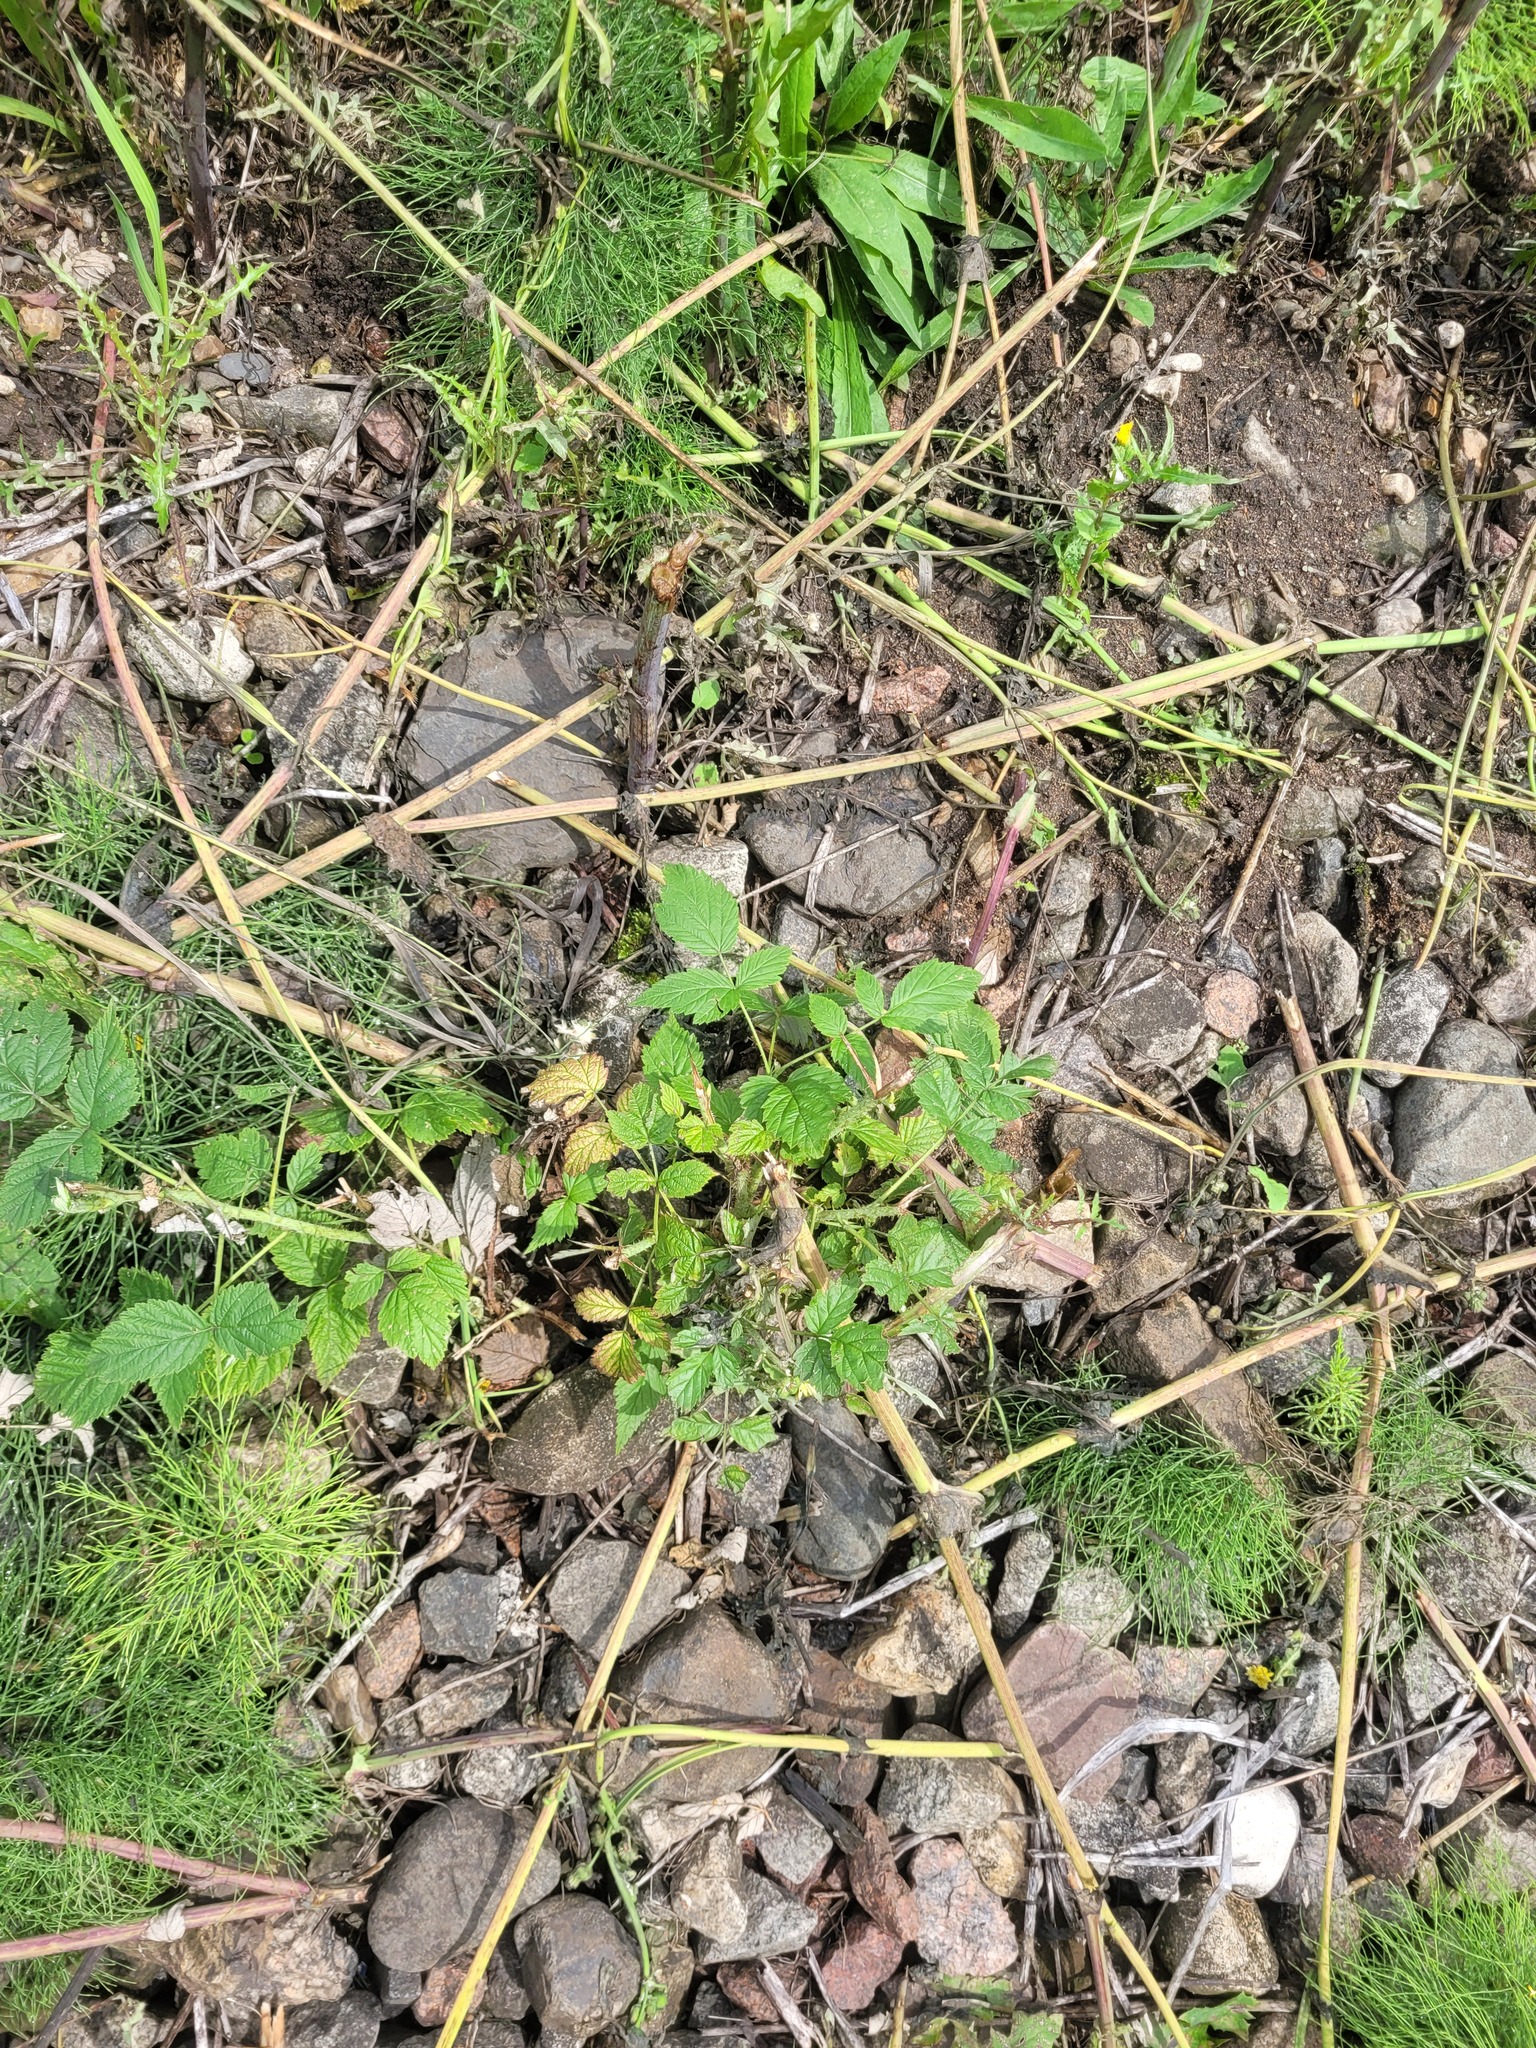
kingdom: Plantae
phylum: Tracheophyta
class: Magnoliopsida
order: Rosales
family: Rosaceae
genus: Rubus
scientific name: Rubus idaeus
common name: Raspberry
